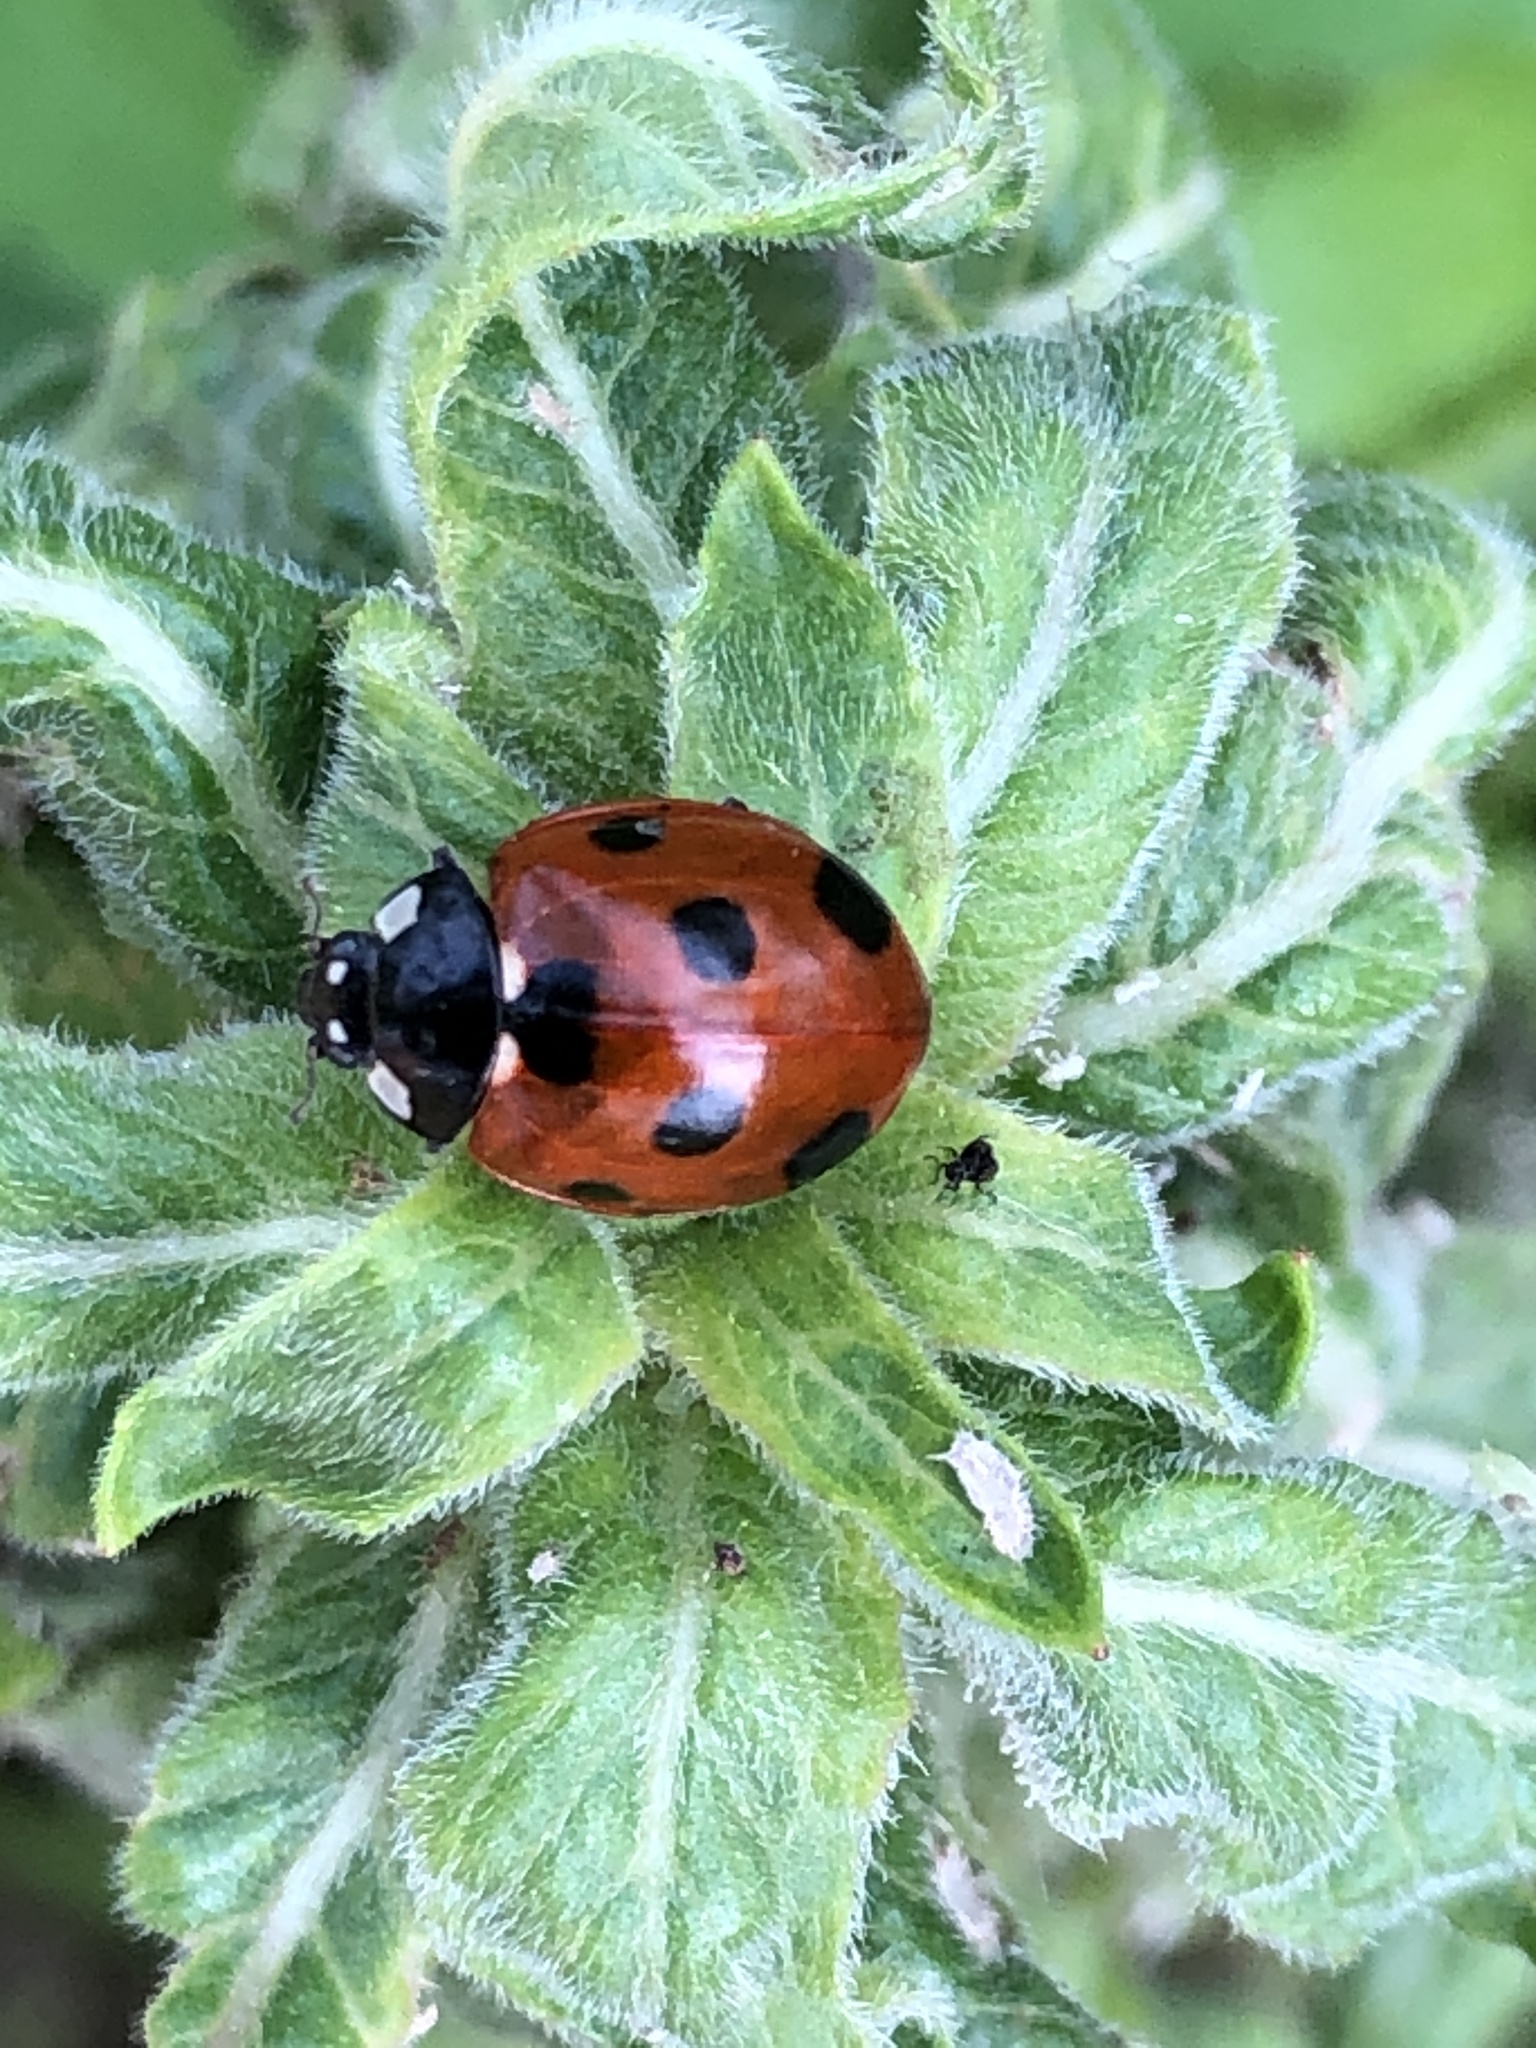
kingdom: Animalia
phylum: Arthropoda
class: Insecta
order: Coleoptera
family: Coccinellidae
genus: Coccinella
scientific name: Coccinella septempunctata
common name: Sevenspotted lady beetle
